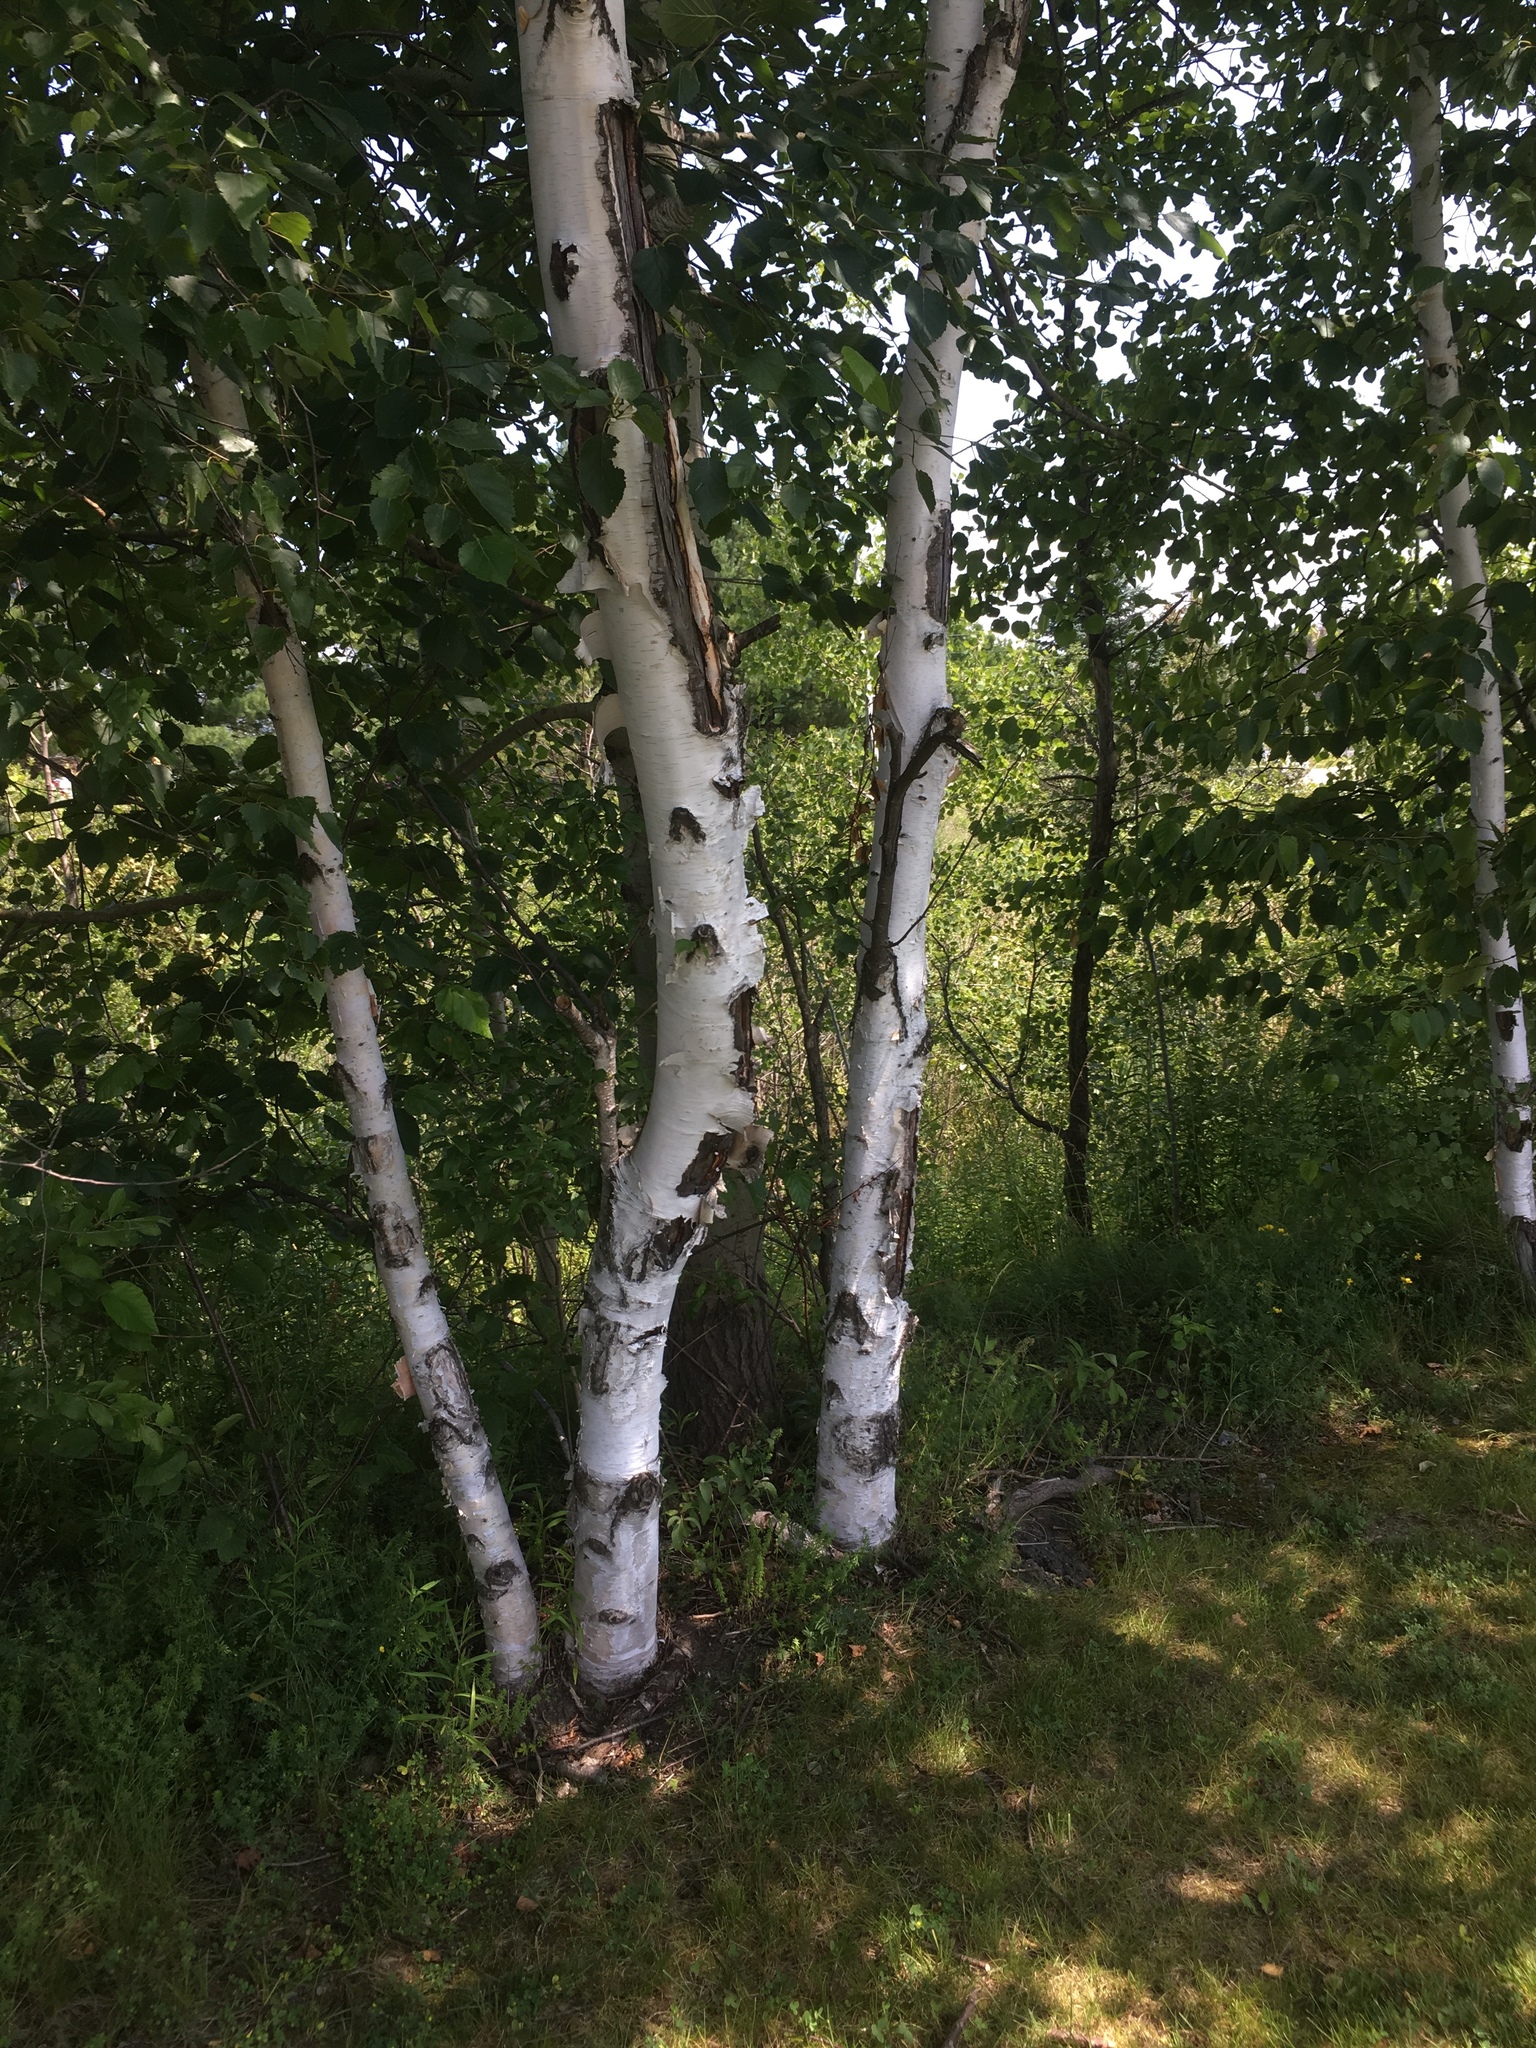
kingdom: Plantae
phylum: Tracheophyta
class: Magnoliopsida
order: Fagales
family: Betulaceae
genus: Betula
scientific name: Betula papyrifera
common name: Paper birch
